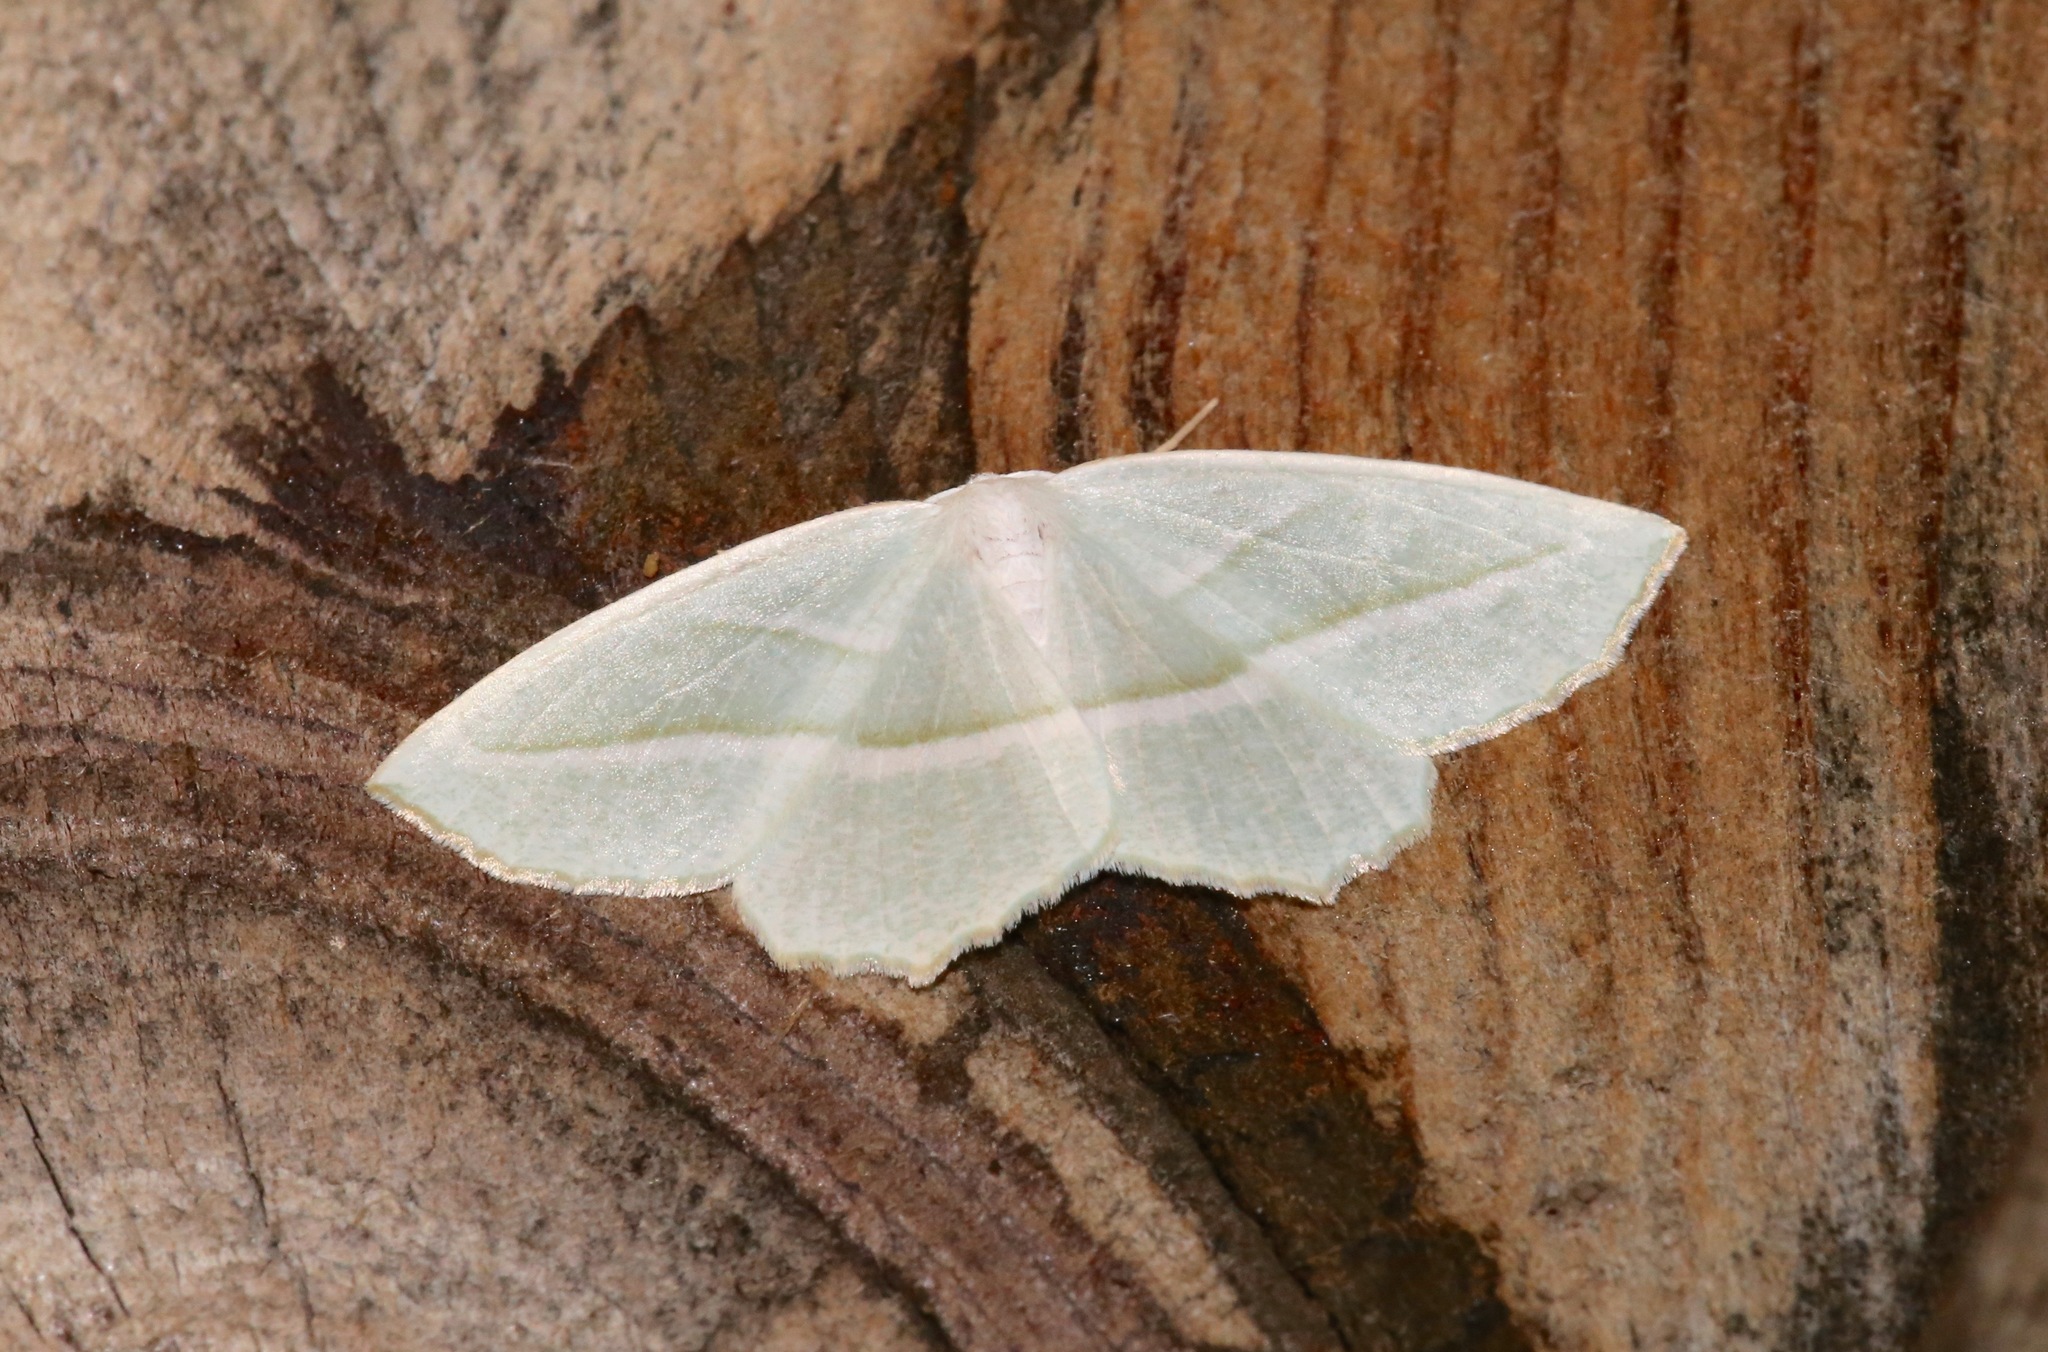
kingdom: Animalia
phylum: Arthropoda
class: Insecta
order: Lepidoptera
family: Geometridae
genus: Campaea
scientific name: Campaea perlata
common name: Fringed looper
